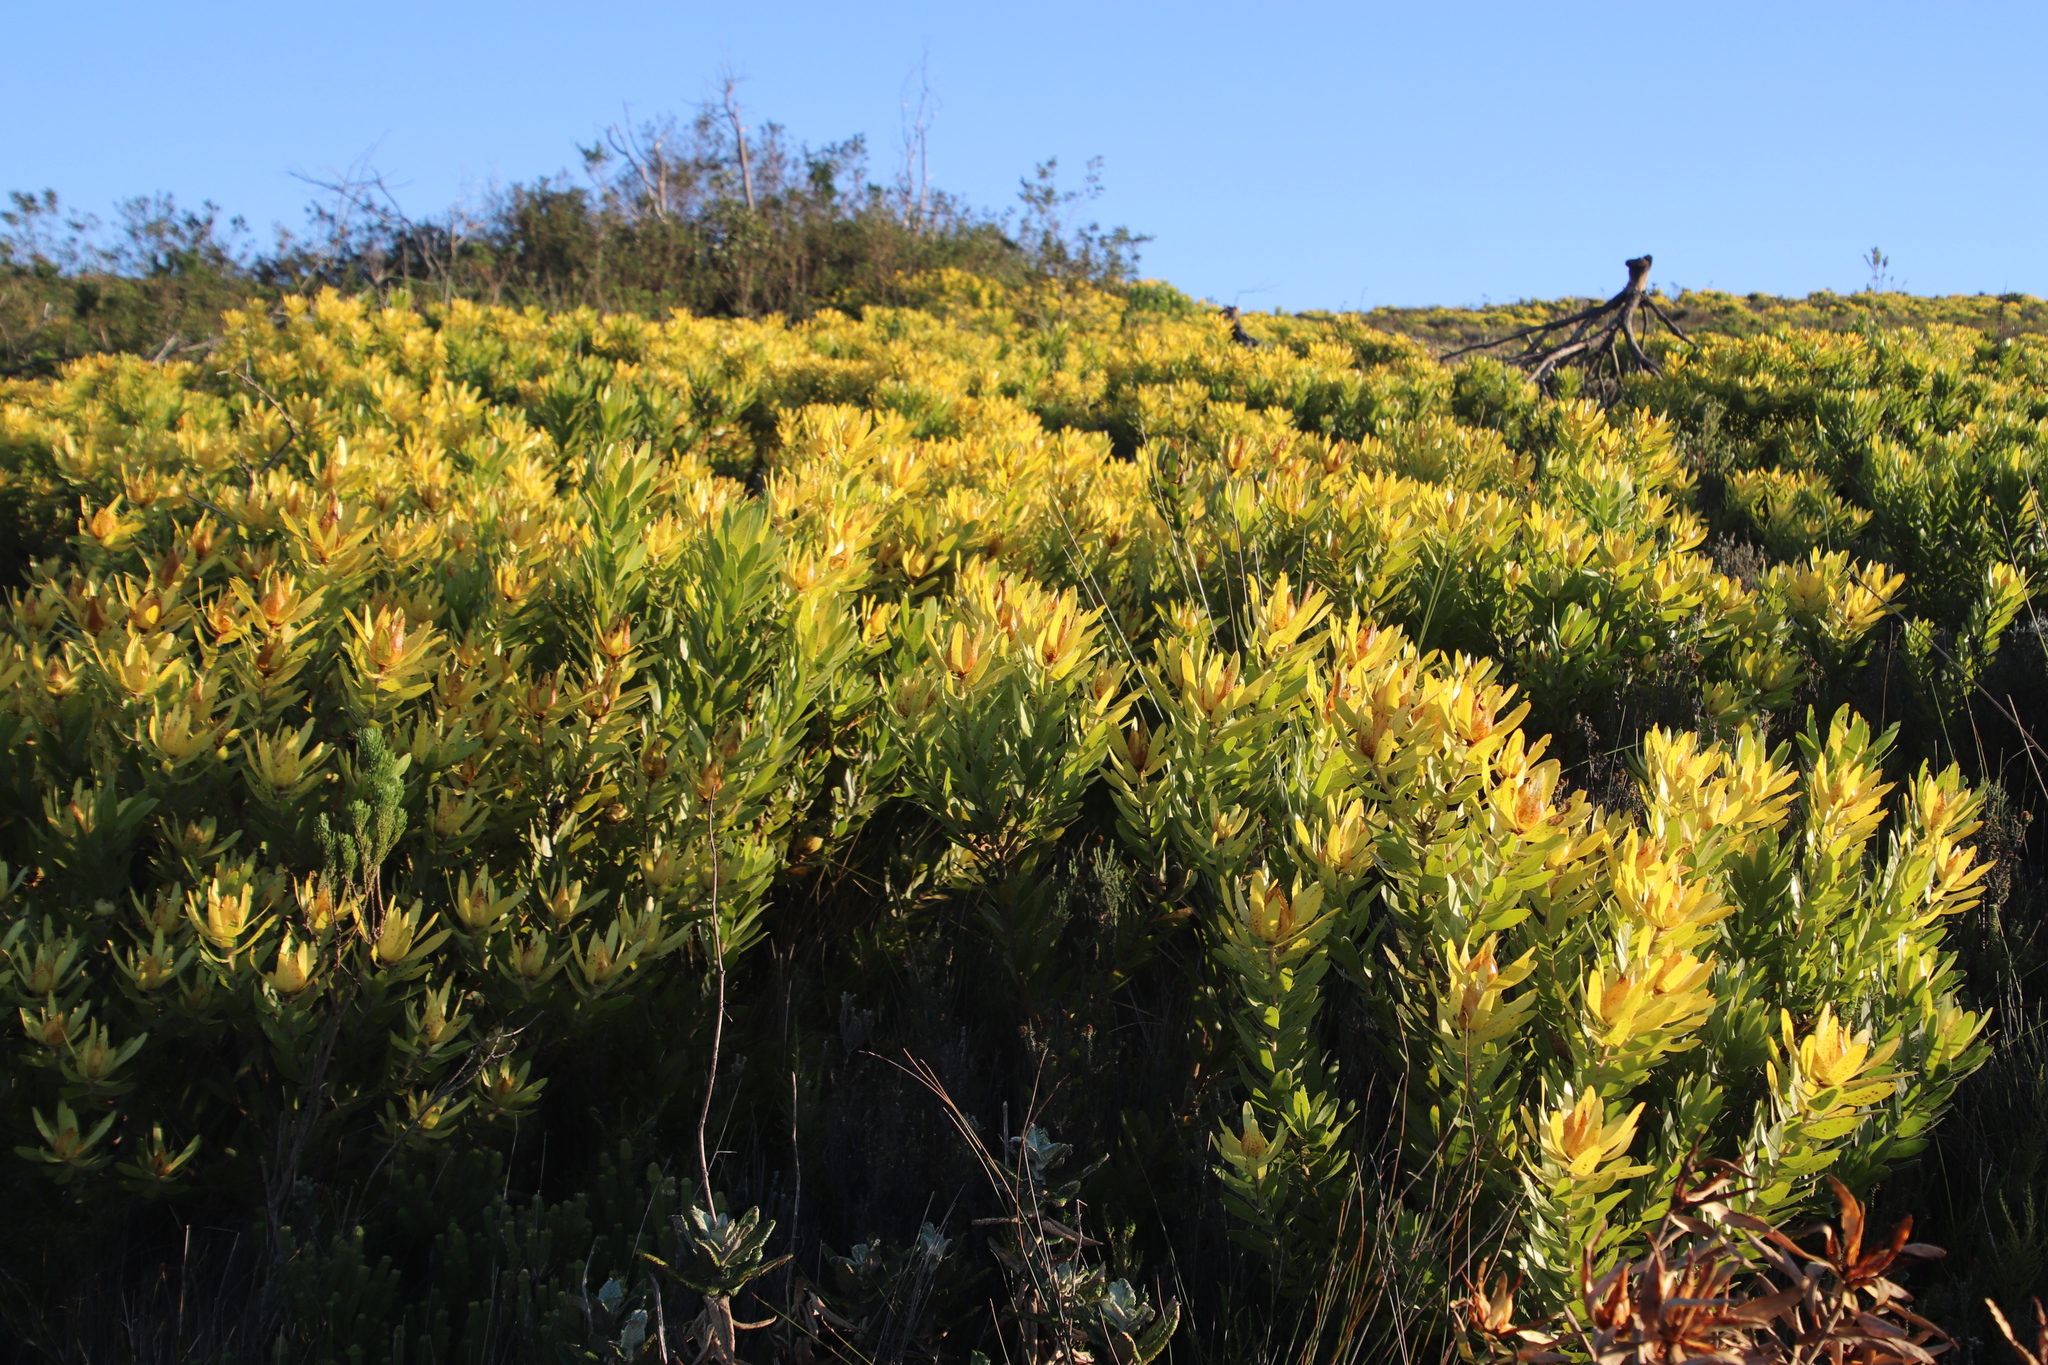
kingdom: Plantae
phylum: Tracheophyta
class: Magnoliopsida
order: Proteales
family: Proteaceae
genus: Leucadendron
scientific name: Leucadendron laureolum
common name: Golden sunshinebush
